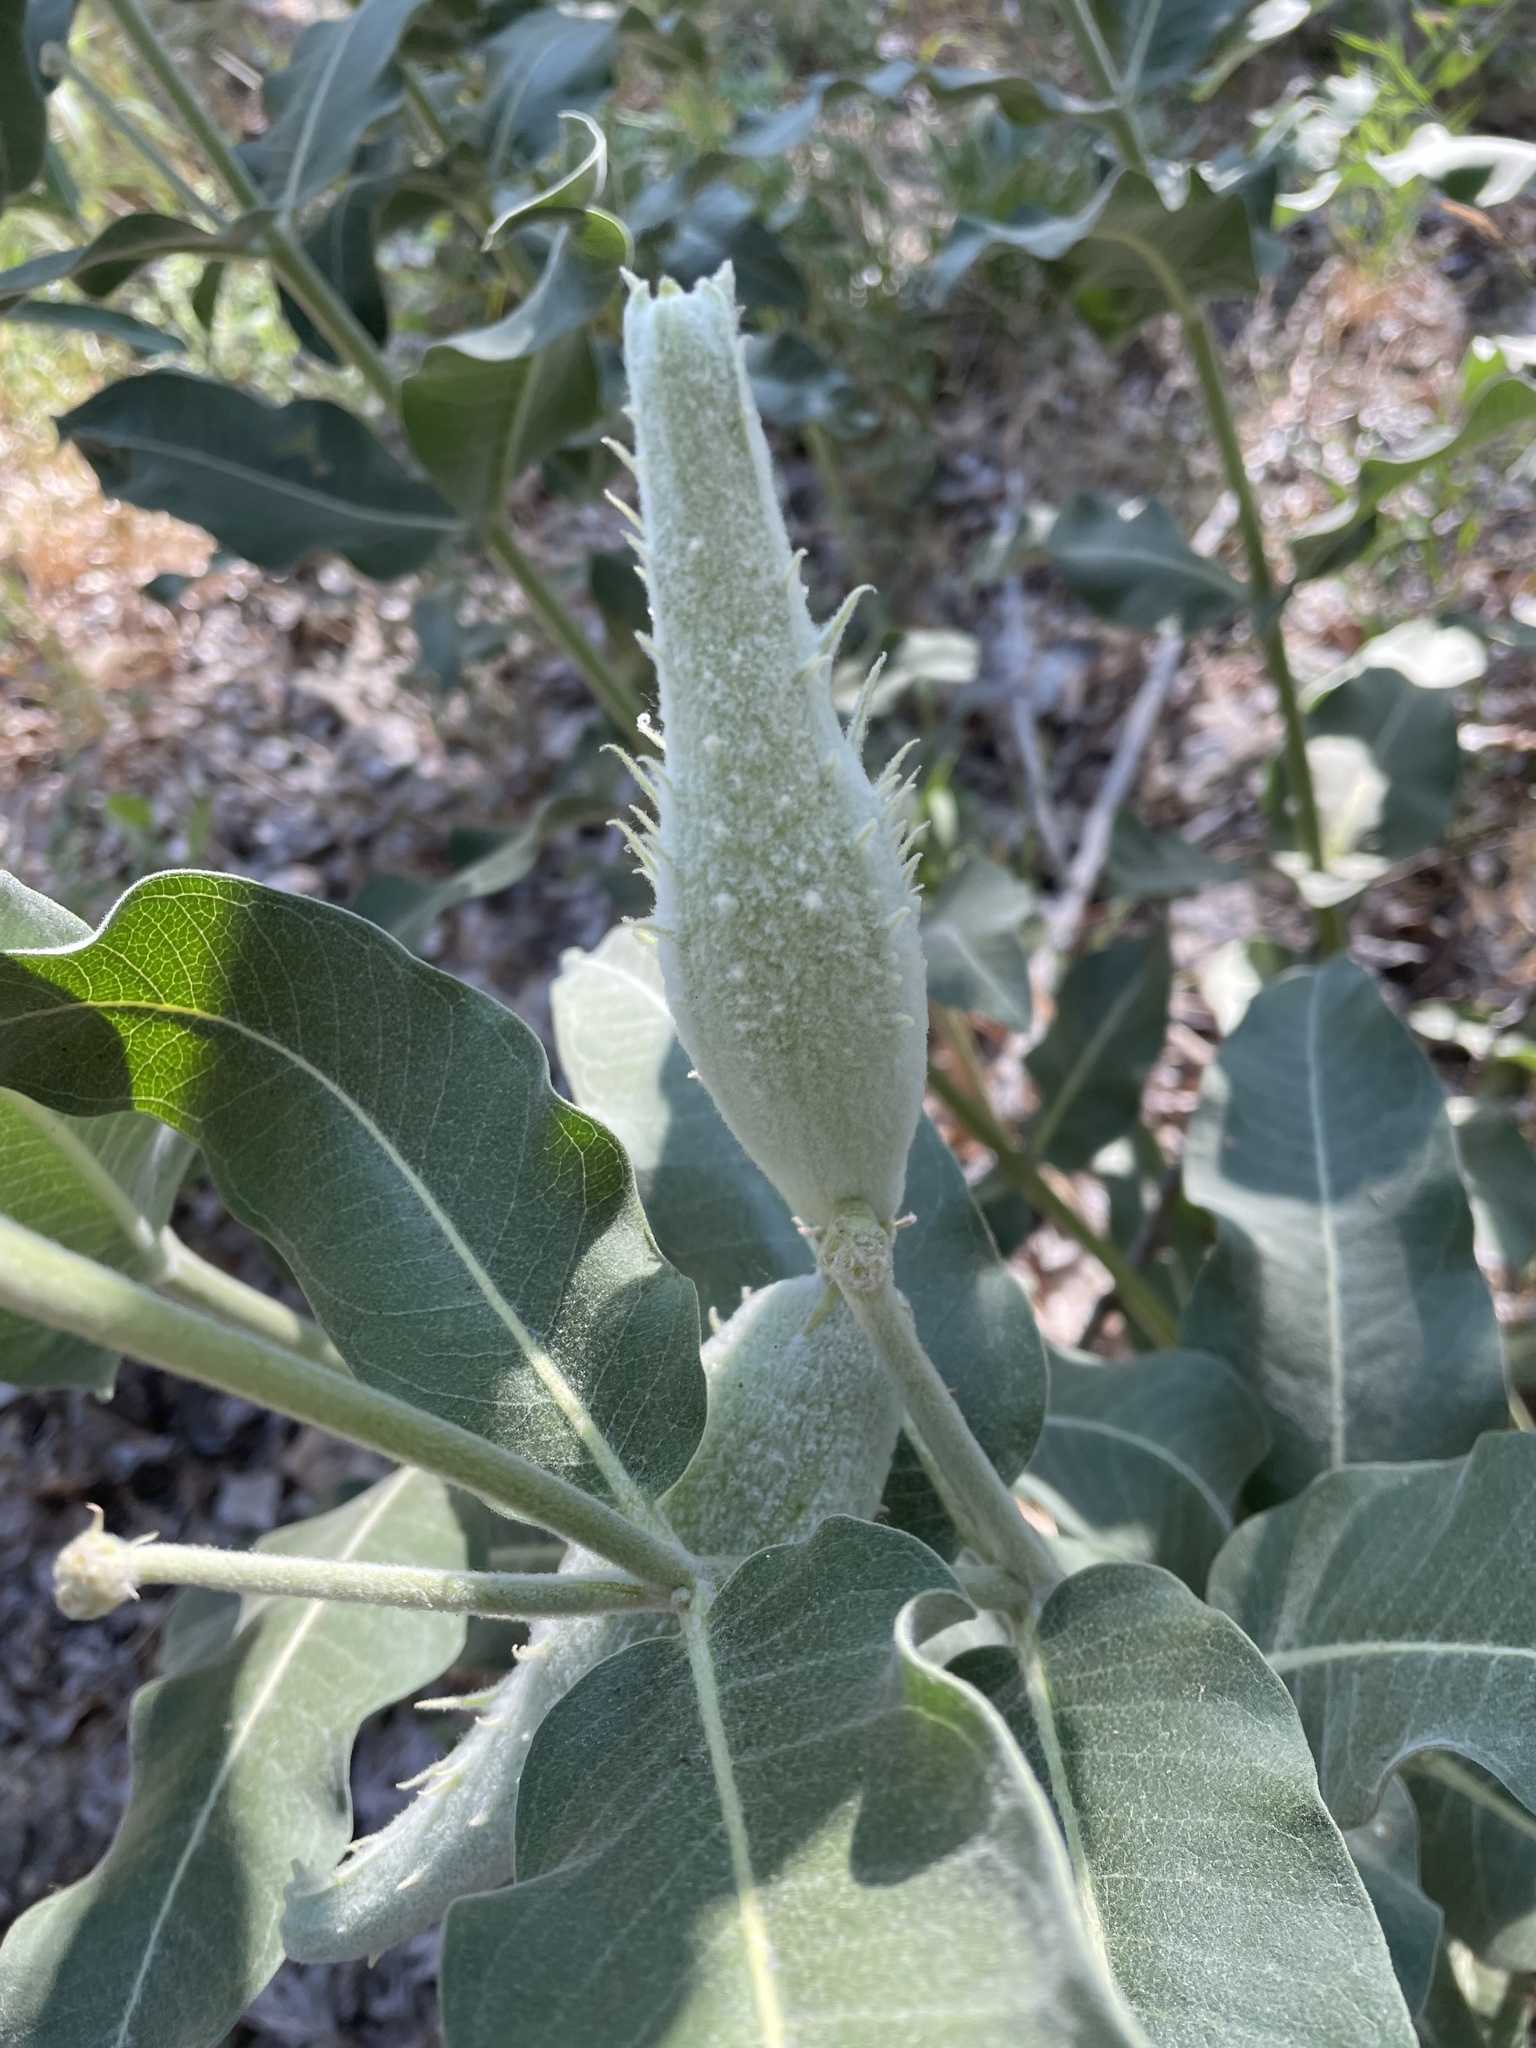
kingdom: Plantae
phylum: Tracheophyta
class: Magnoliopsida
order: Gentianales
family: Apocynaceae
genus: Asclepias
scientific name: Asclepias speciosa
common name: Showy milkweed
